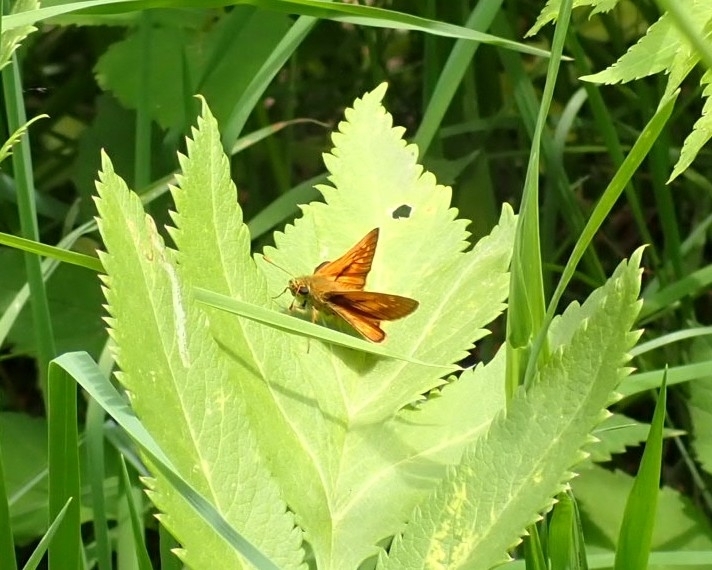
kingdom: Animalia
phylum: Arthropoda
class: Insecta
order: Lepidoptera
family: Hesperiidae
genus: Ochlodes
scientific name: Ochlodes venata
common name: Large skipper
